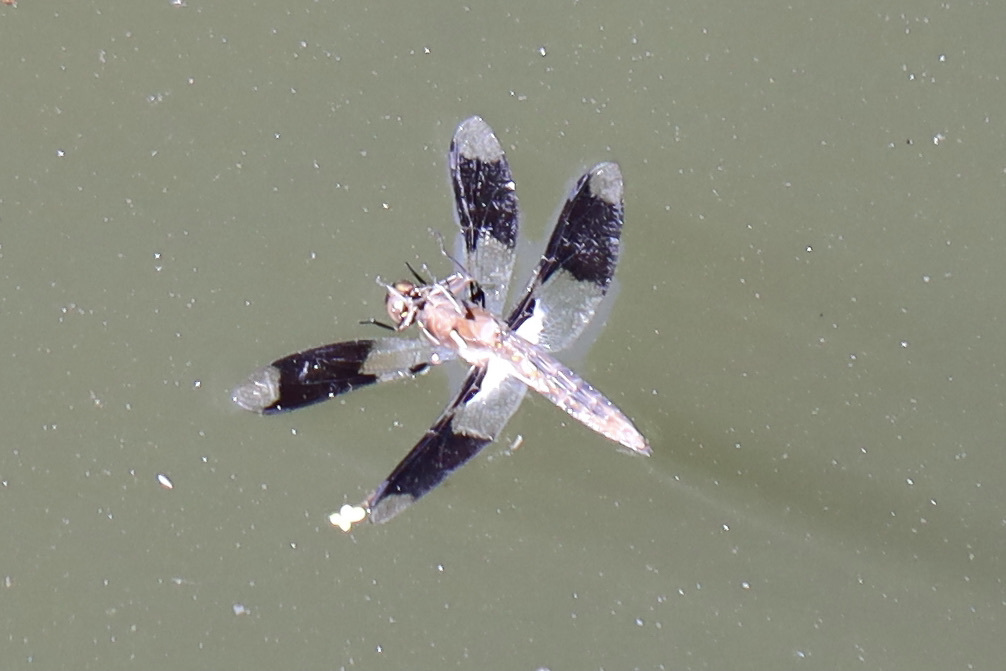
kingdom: Animalia
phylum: Arthropoda
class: Insecta
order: Odonata
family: Libellulidae
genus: Plathemis
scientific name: Plathemis lydia
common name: Common whitetail
